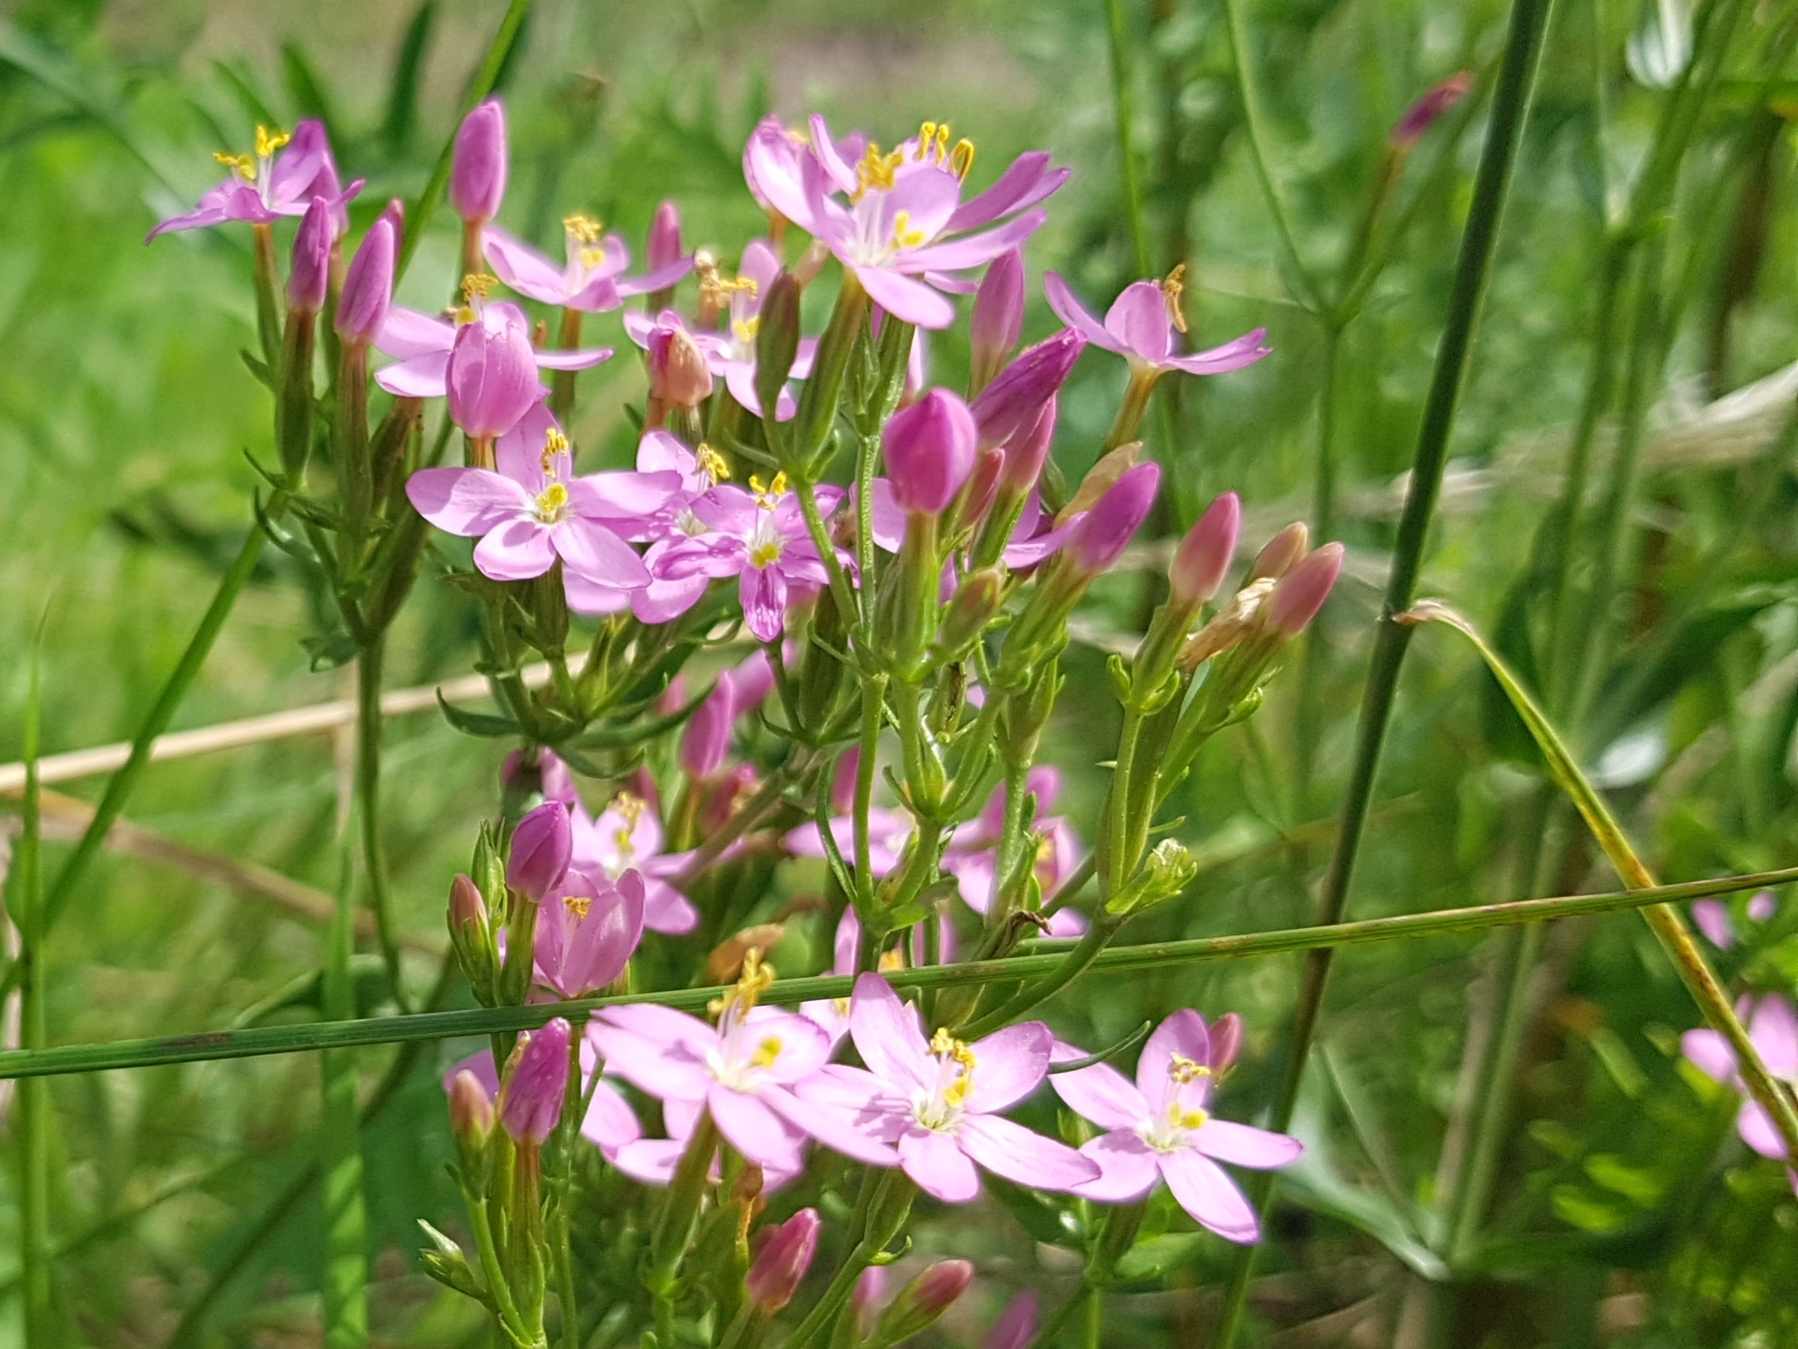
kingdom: Plantae
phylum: Tracheophyta
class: Magnoliopsida
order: Gentianales
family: Gentianaceae
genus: Centaurium
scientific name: Centaurium erythraea
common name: Common centaury
